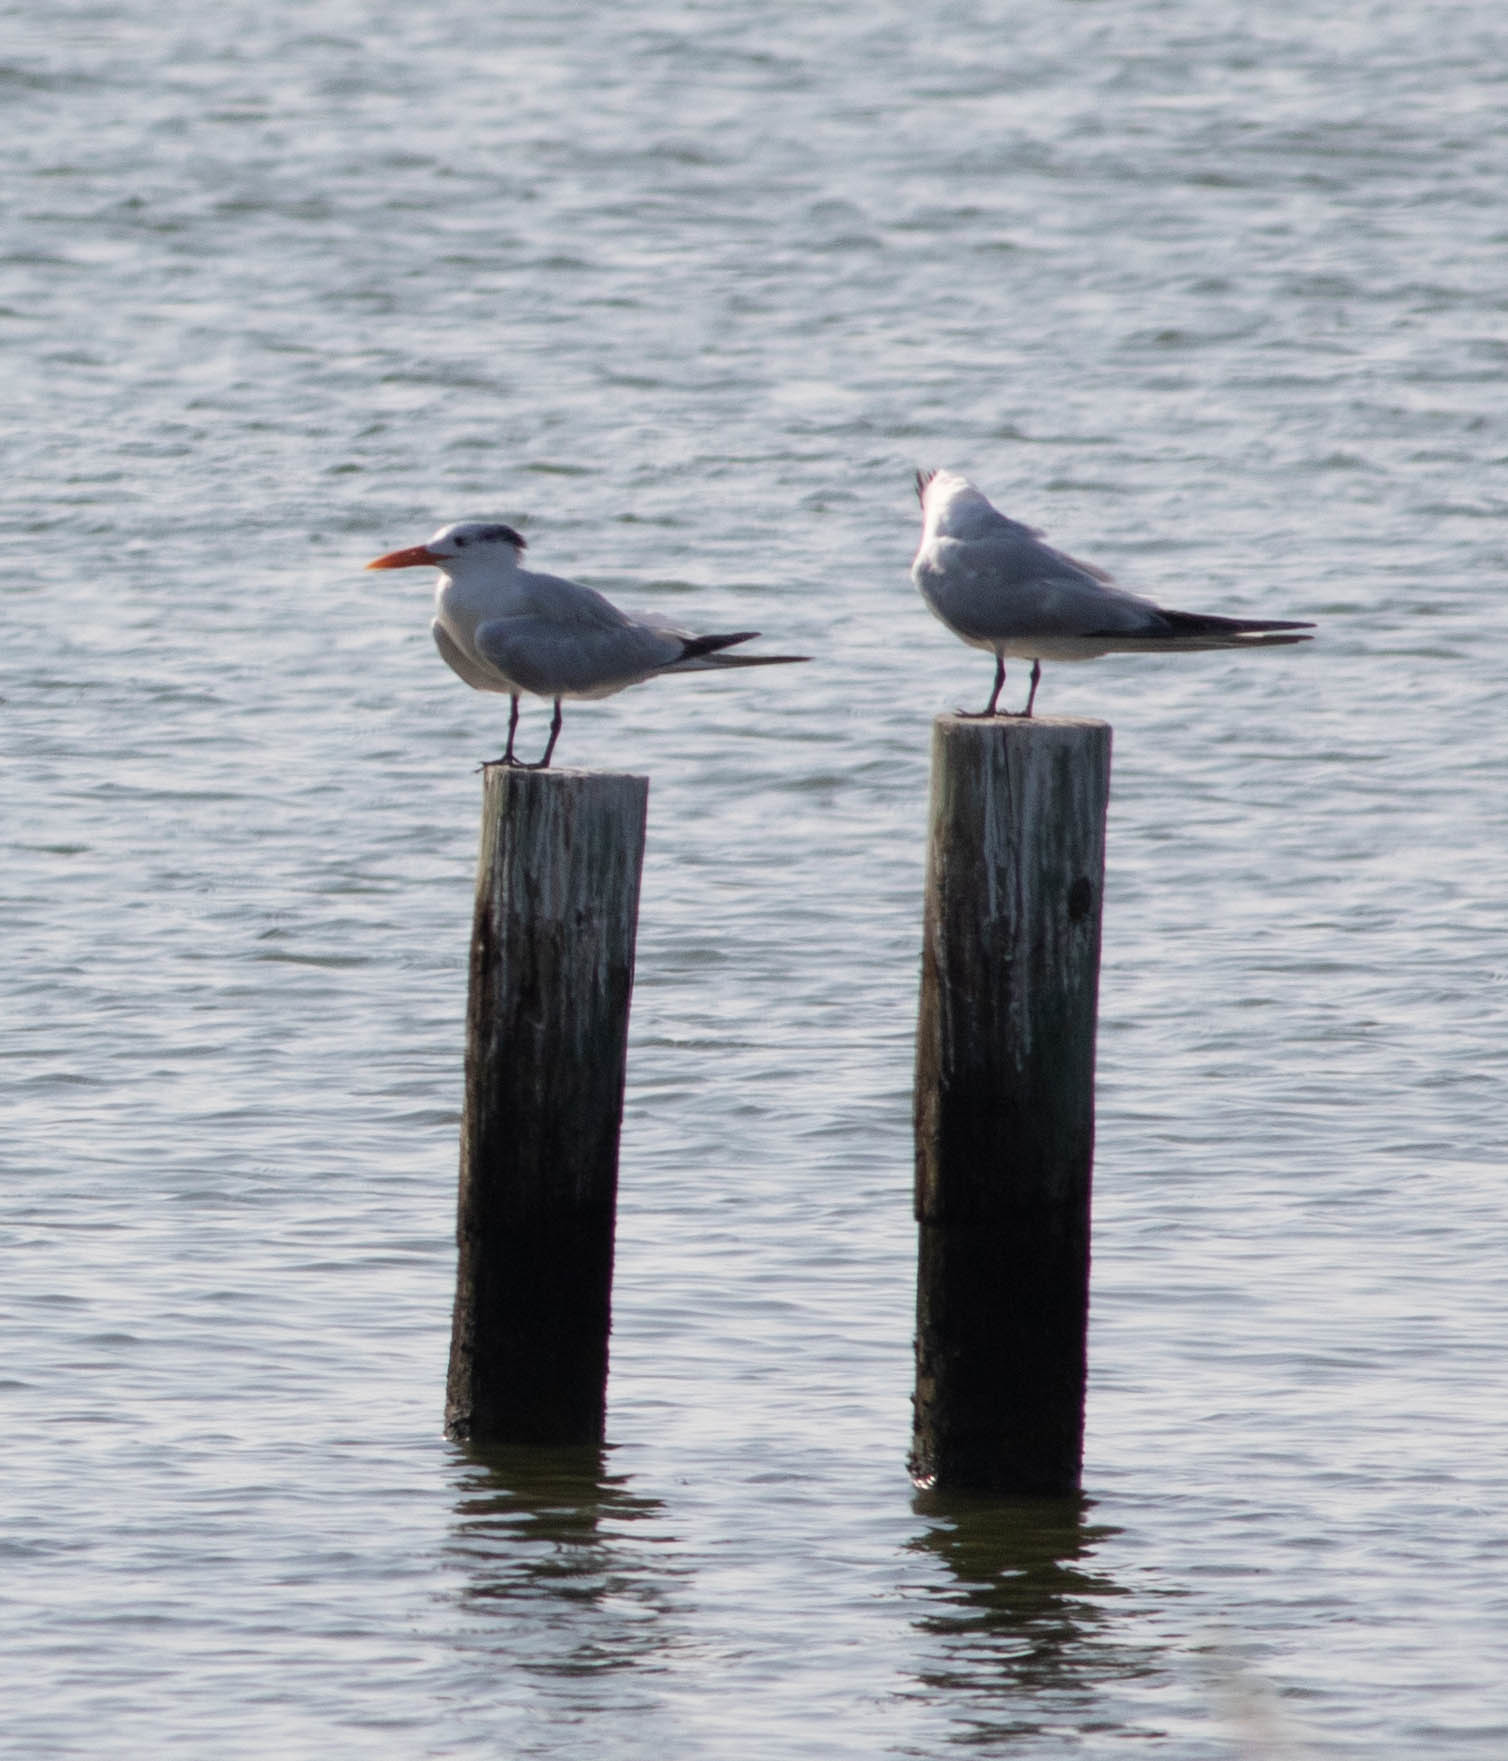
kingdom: Animalia
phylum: Chordata
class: Aves
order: Charadriiformes
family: Laridae
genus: Thalasseus
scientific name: Thalasseus maximus
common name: Royal tern
